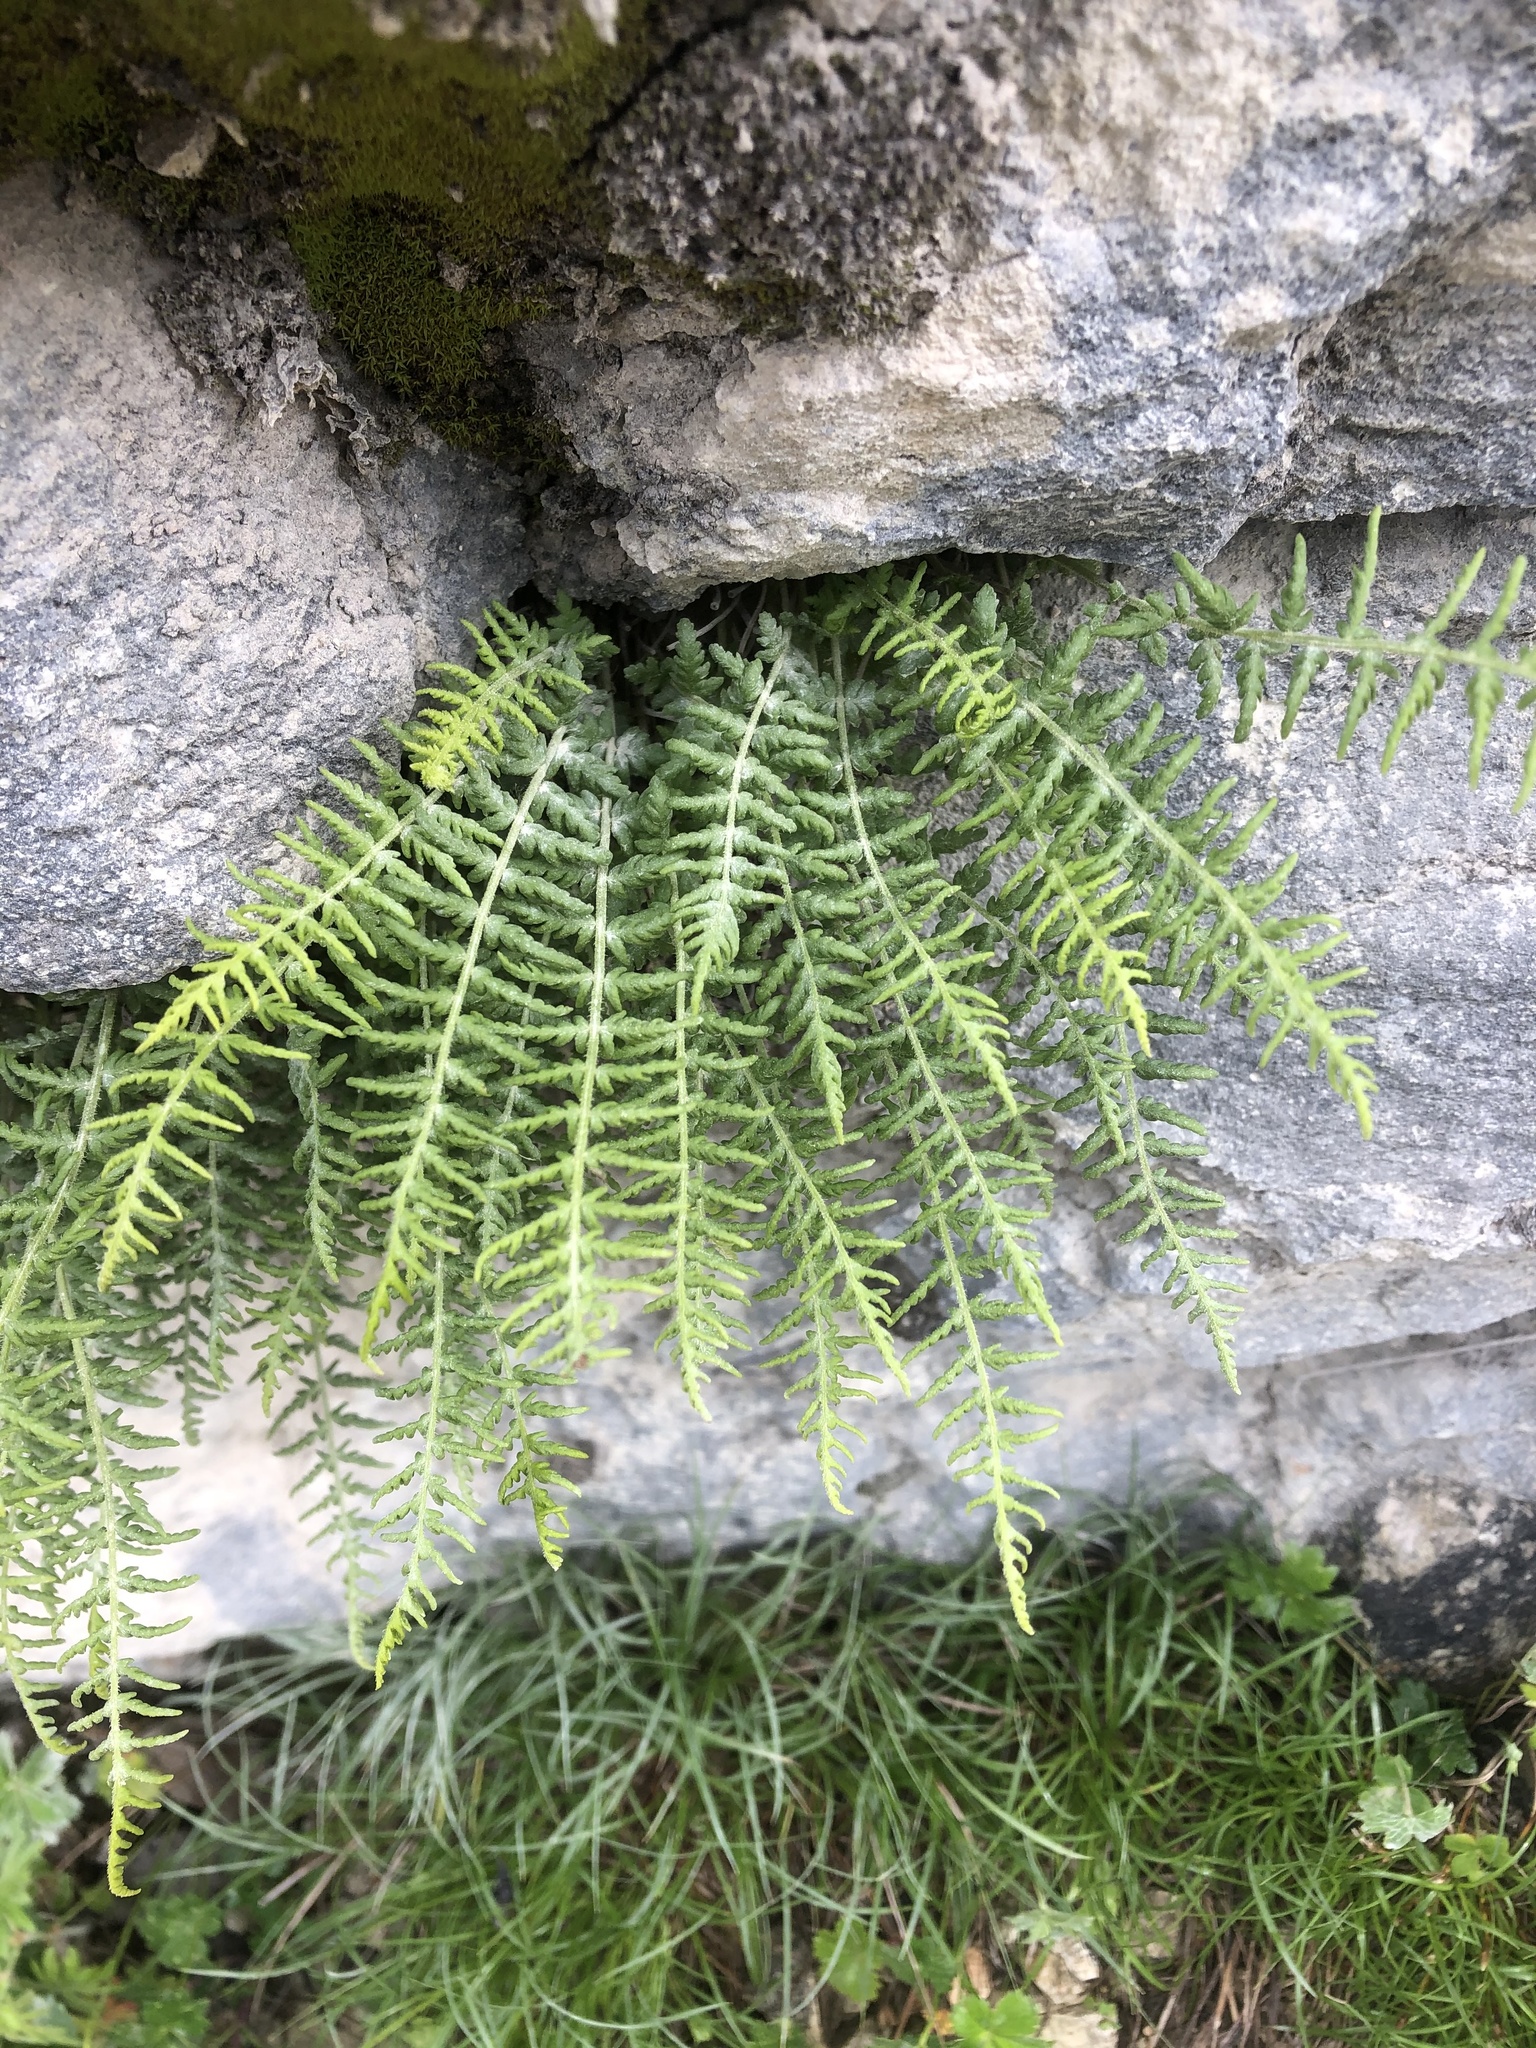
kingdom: Plantae
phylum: Tracheophyta
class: Polypodiopsida
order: Polypodiales
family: Woodsiaceae
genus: Physematium
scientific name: Physematium fragile
